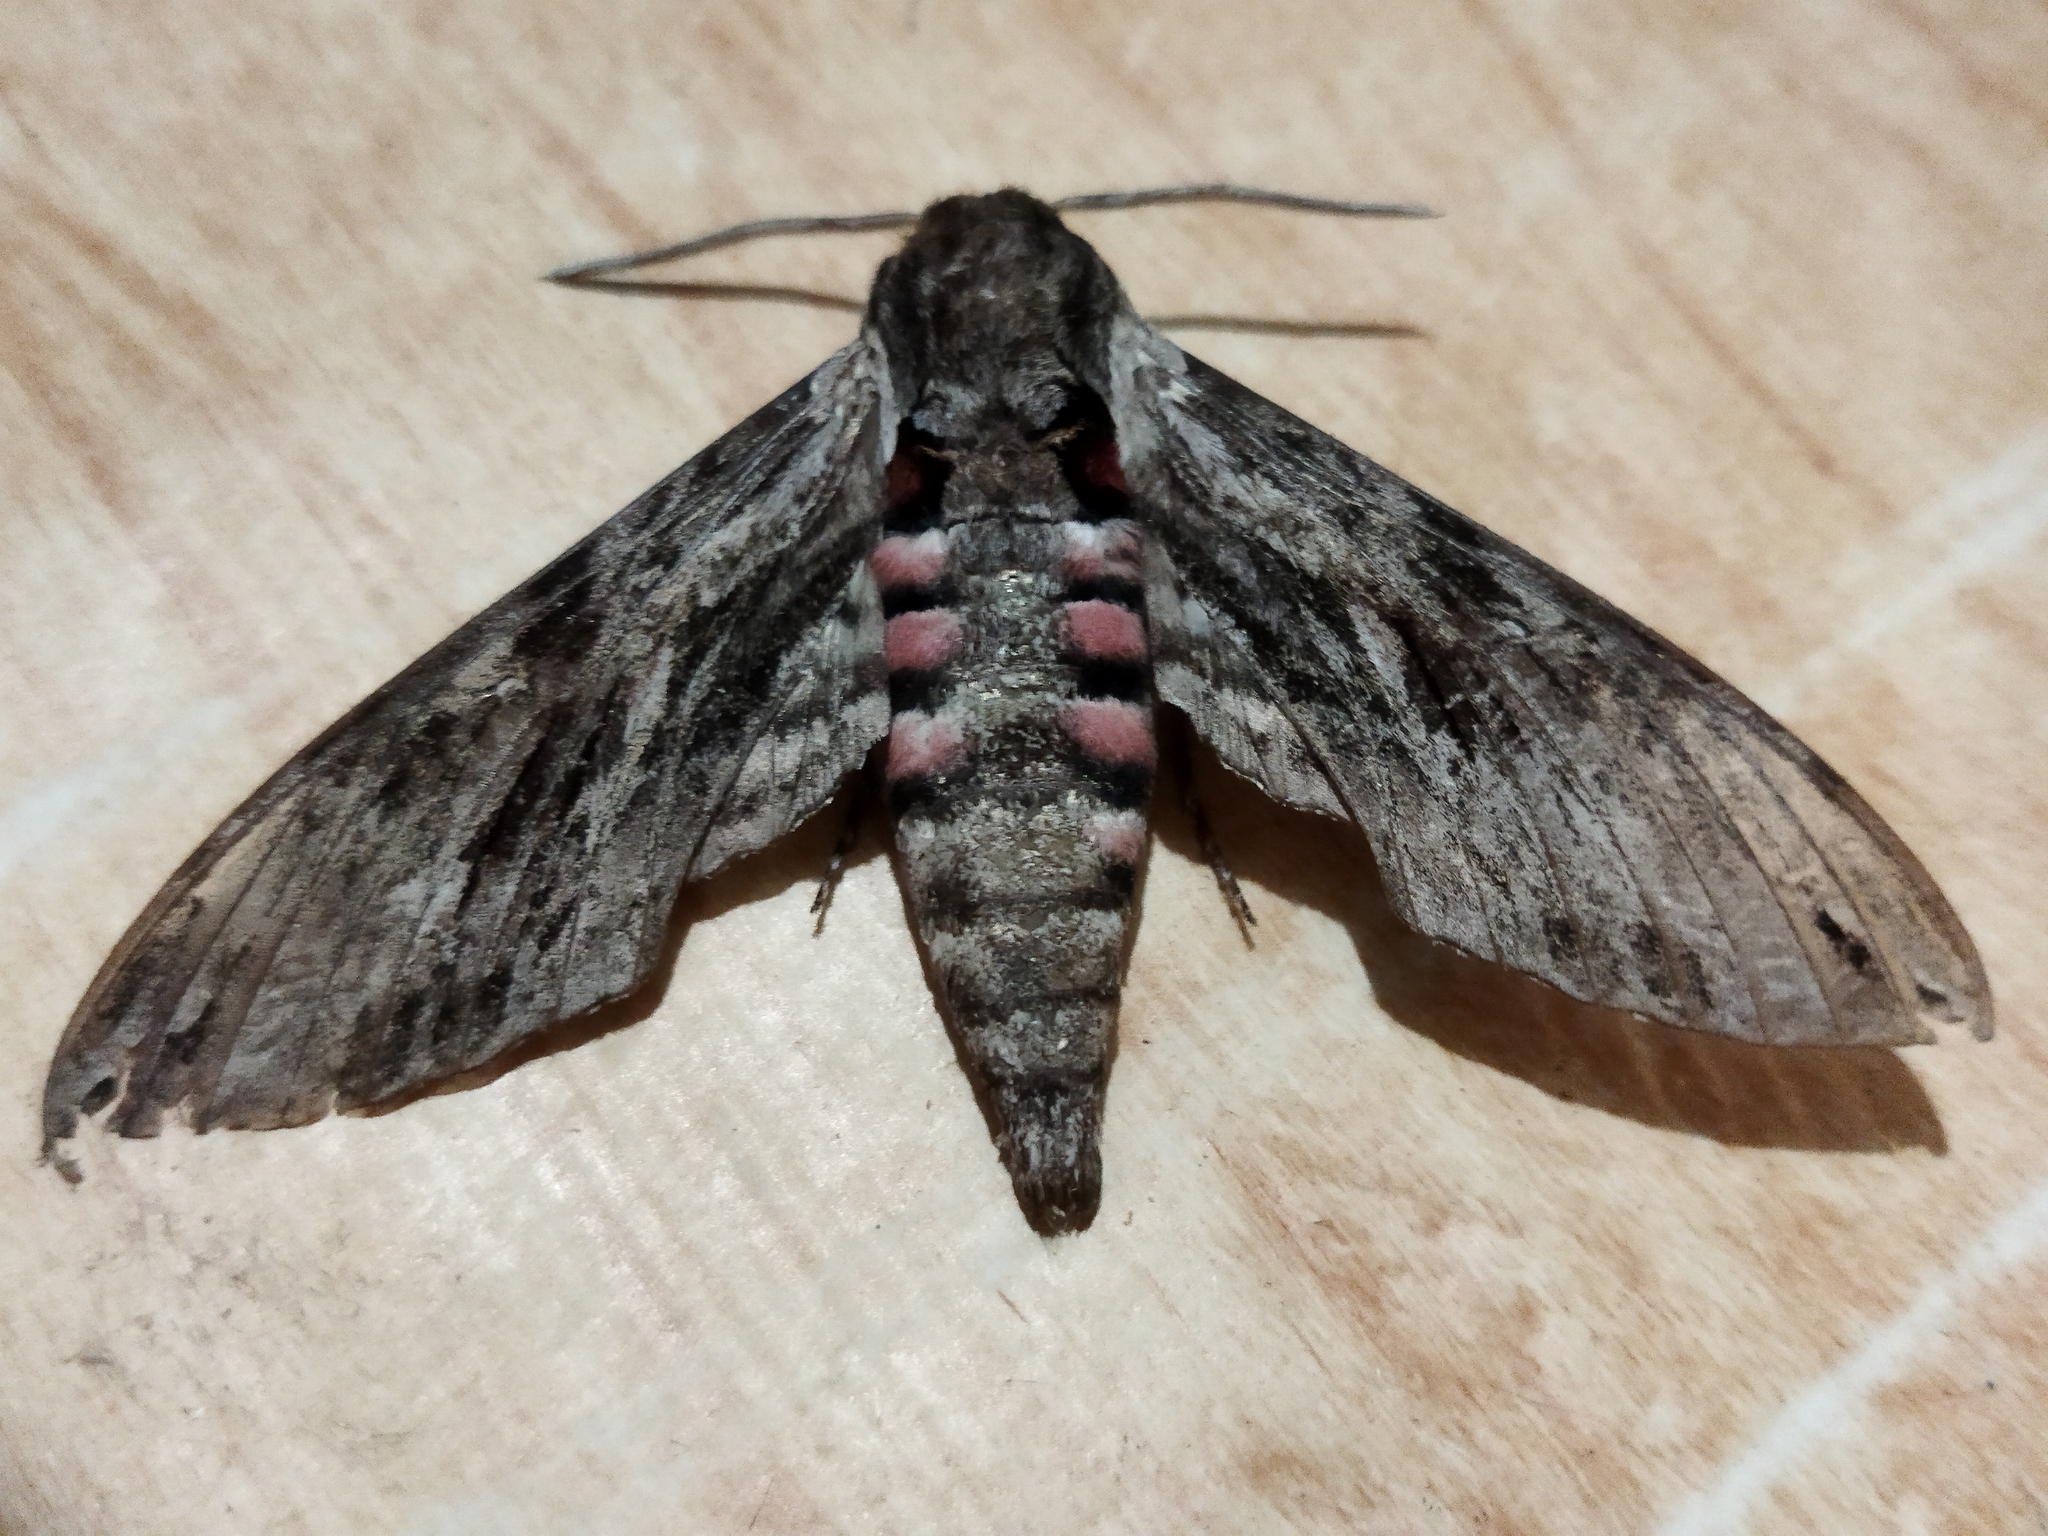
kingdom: Animalia
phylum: Arthropoda
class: Insecta
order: Lepidoptera
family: Sphingidae
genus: Agrius
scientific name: Agrius convolvuli
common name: Convolvulus hawkmoth
